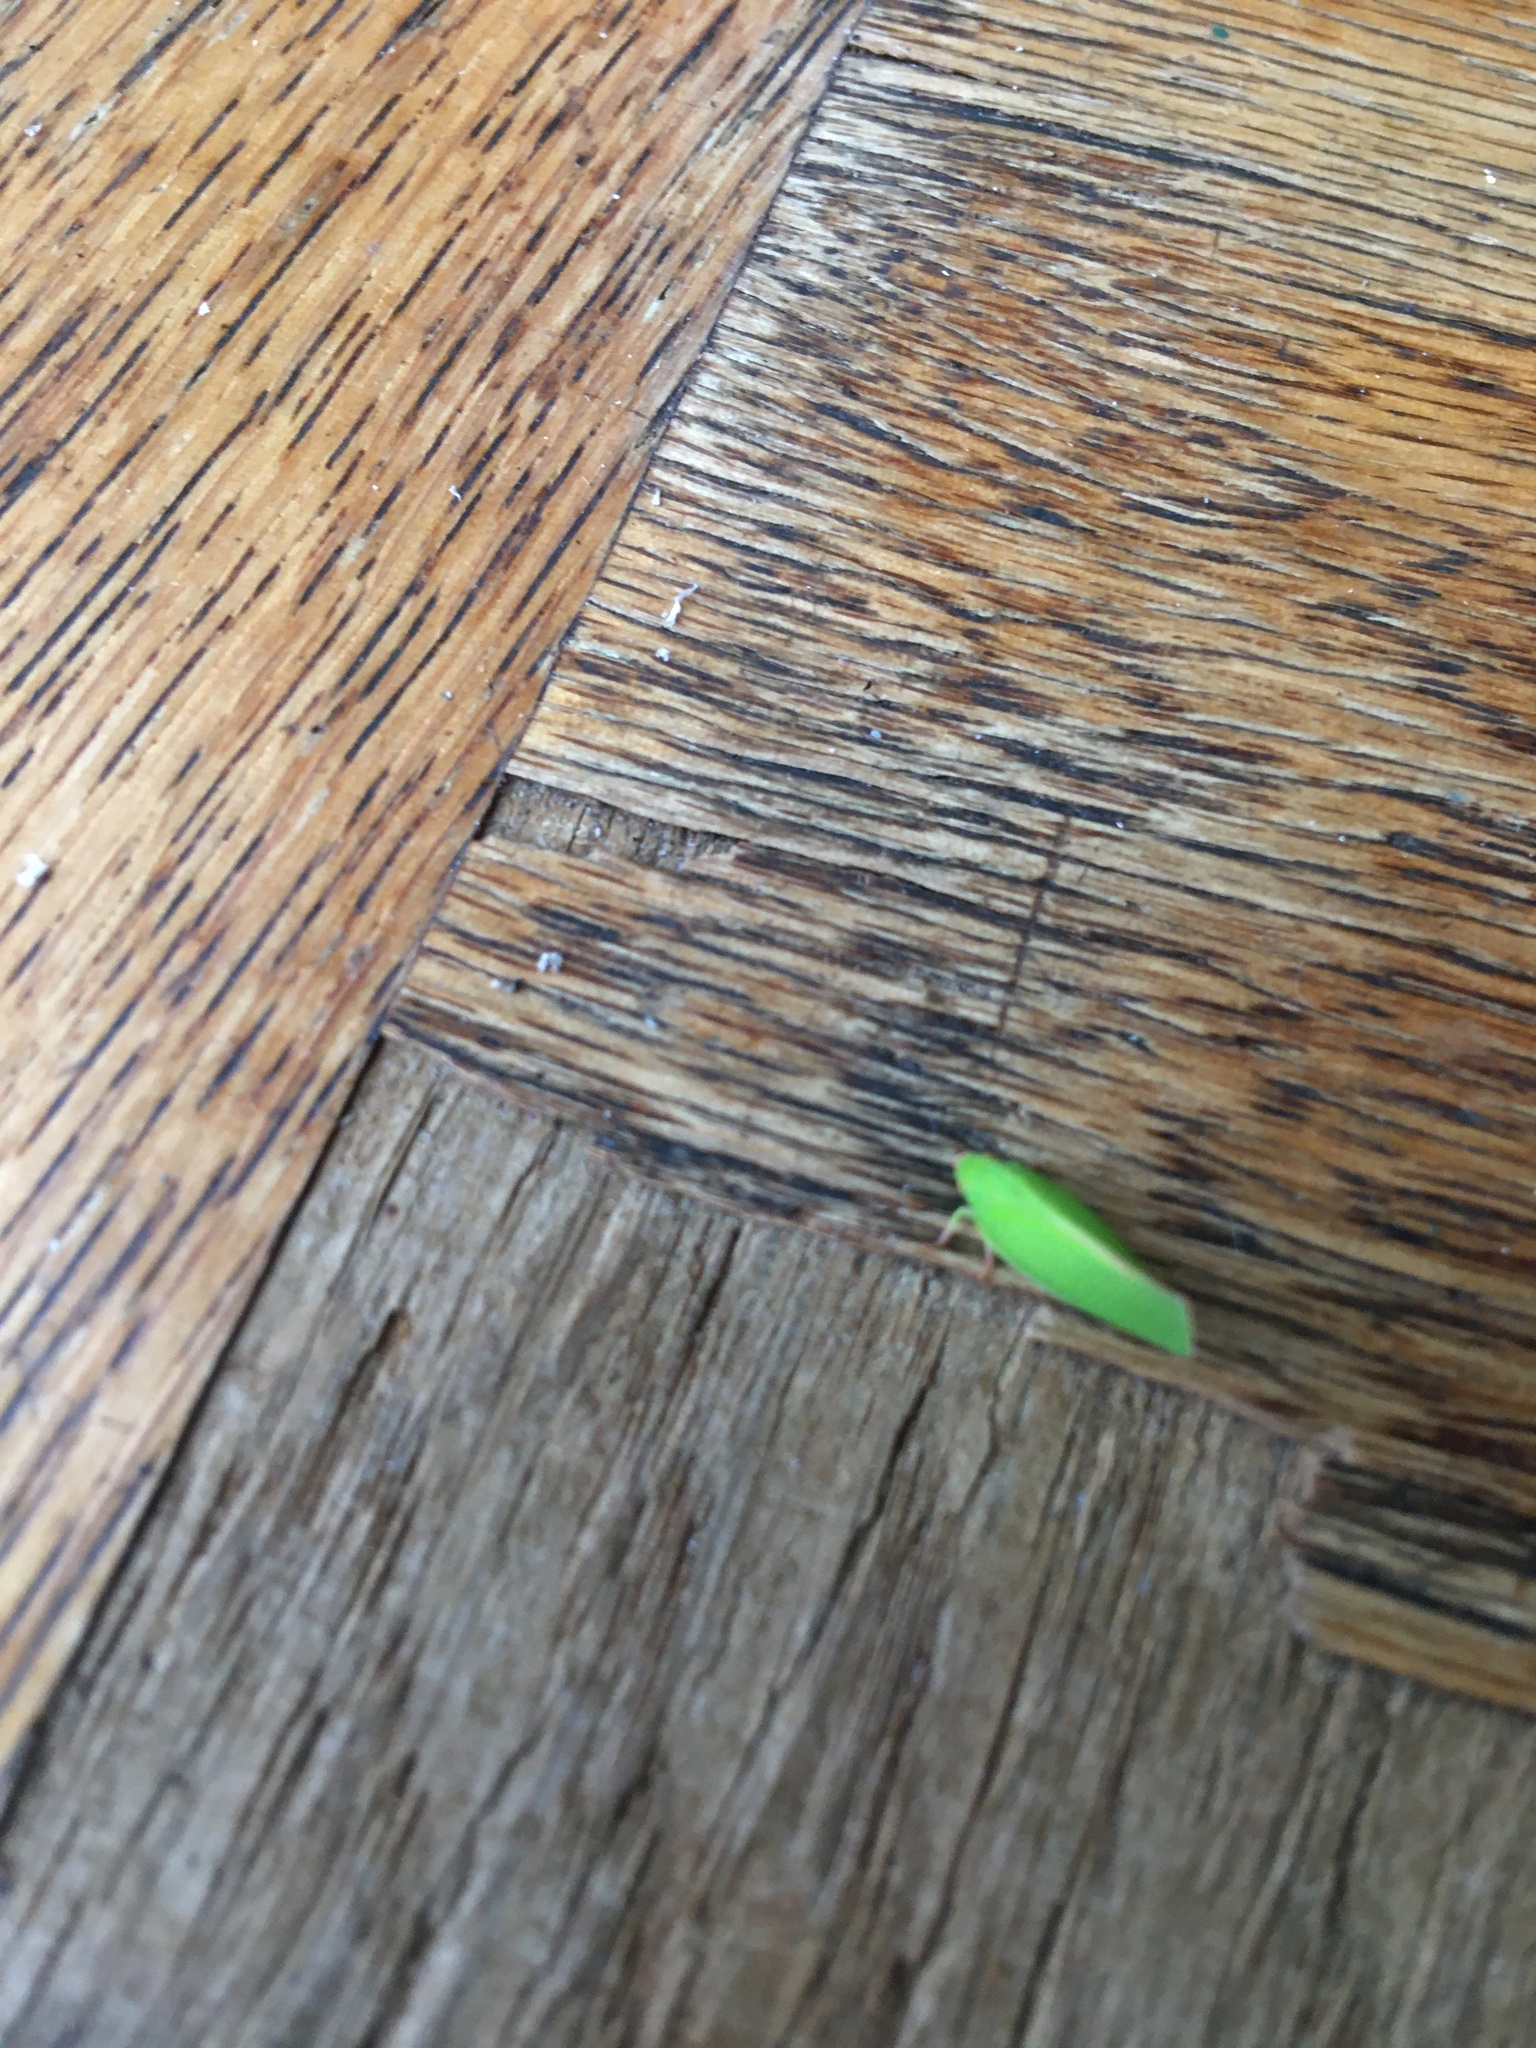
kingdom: Animalia
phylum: Arthropoda
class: Insecta
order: Hemiptera
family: Flatidae
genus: Siphanta
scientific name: Siphanta acuta
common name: Torpedo bug
